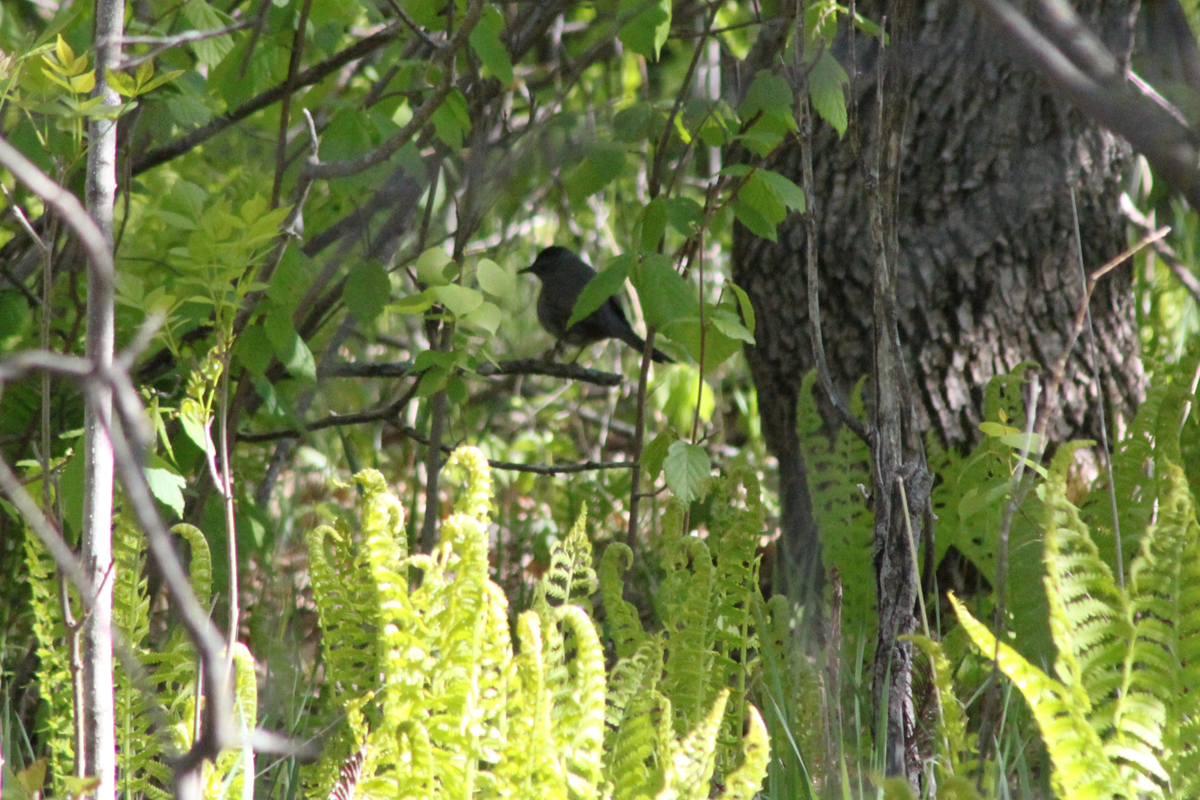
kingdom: Animalia
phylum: Chordata
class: Aves
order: Passeriformes
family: Mimidae
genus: Dumetella
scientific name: Dumetella carolinensis
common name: Gray catbird
